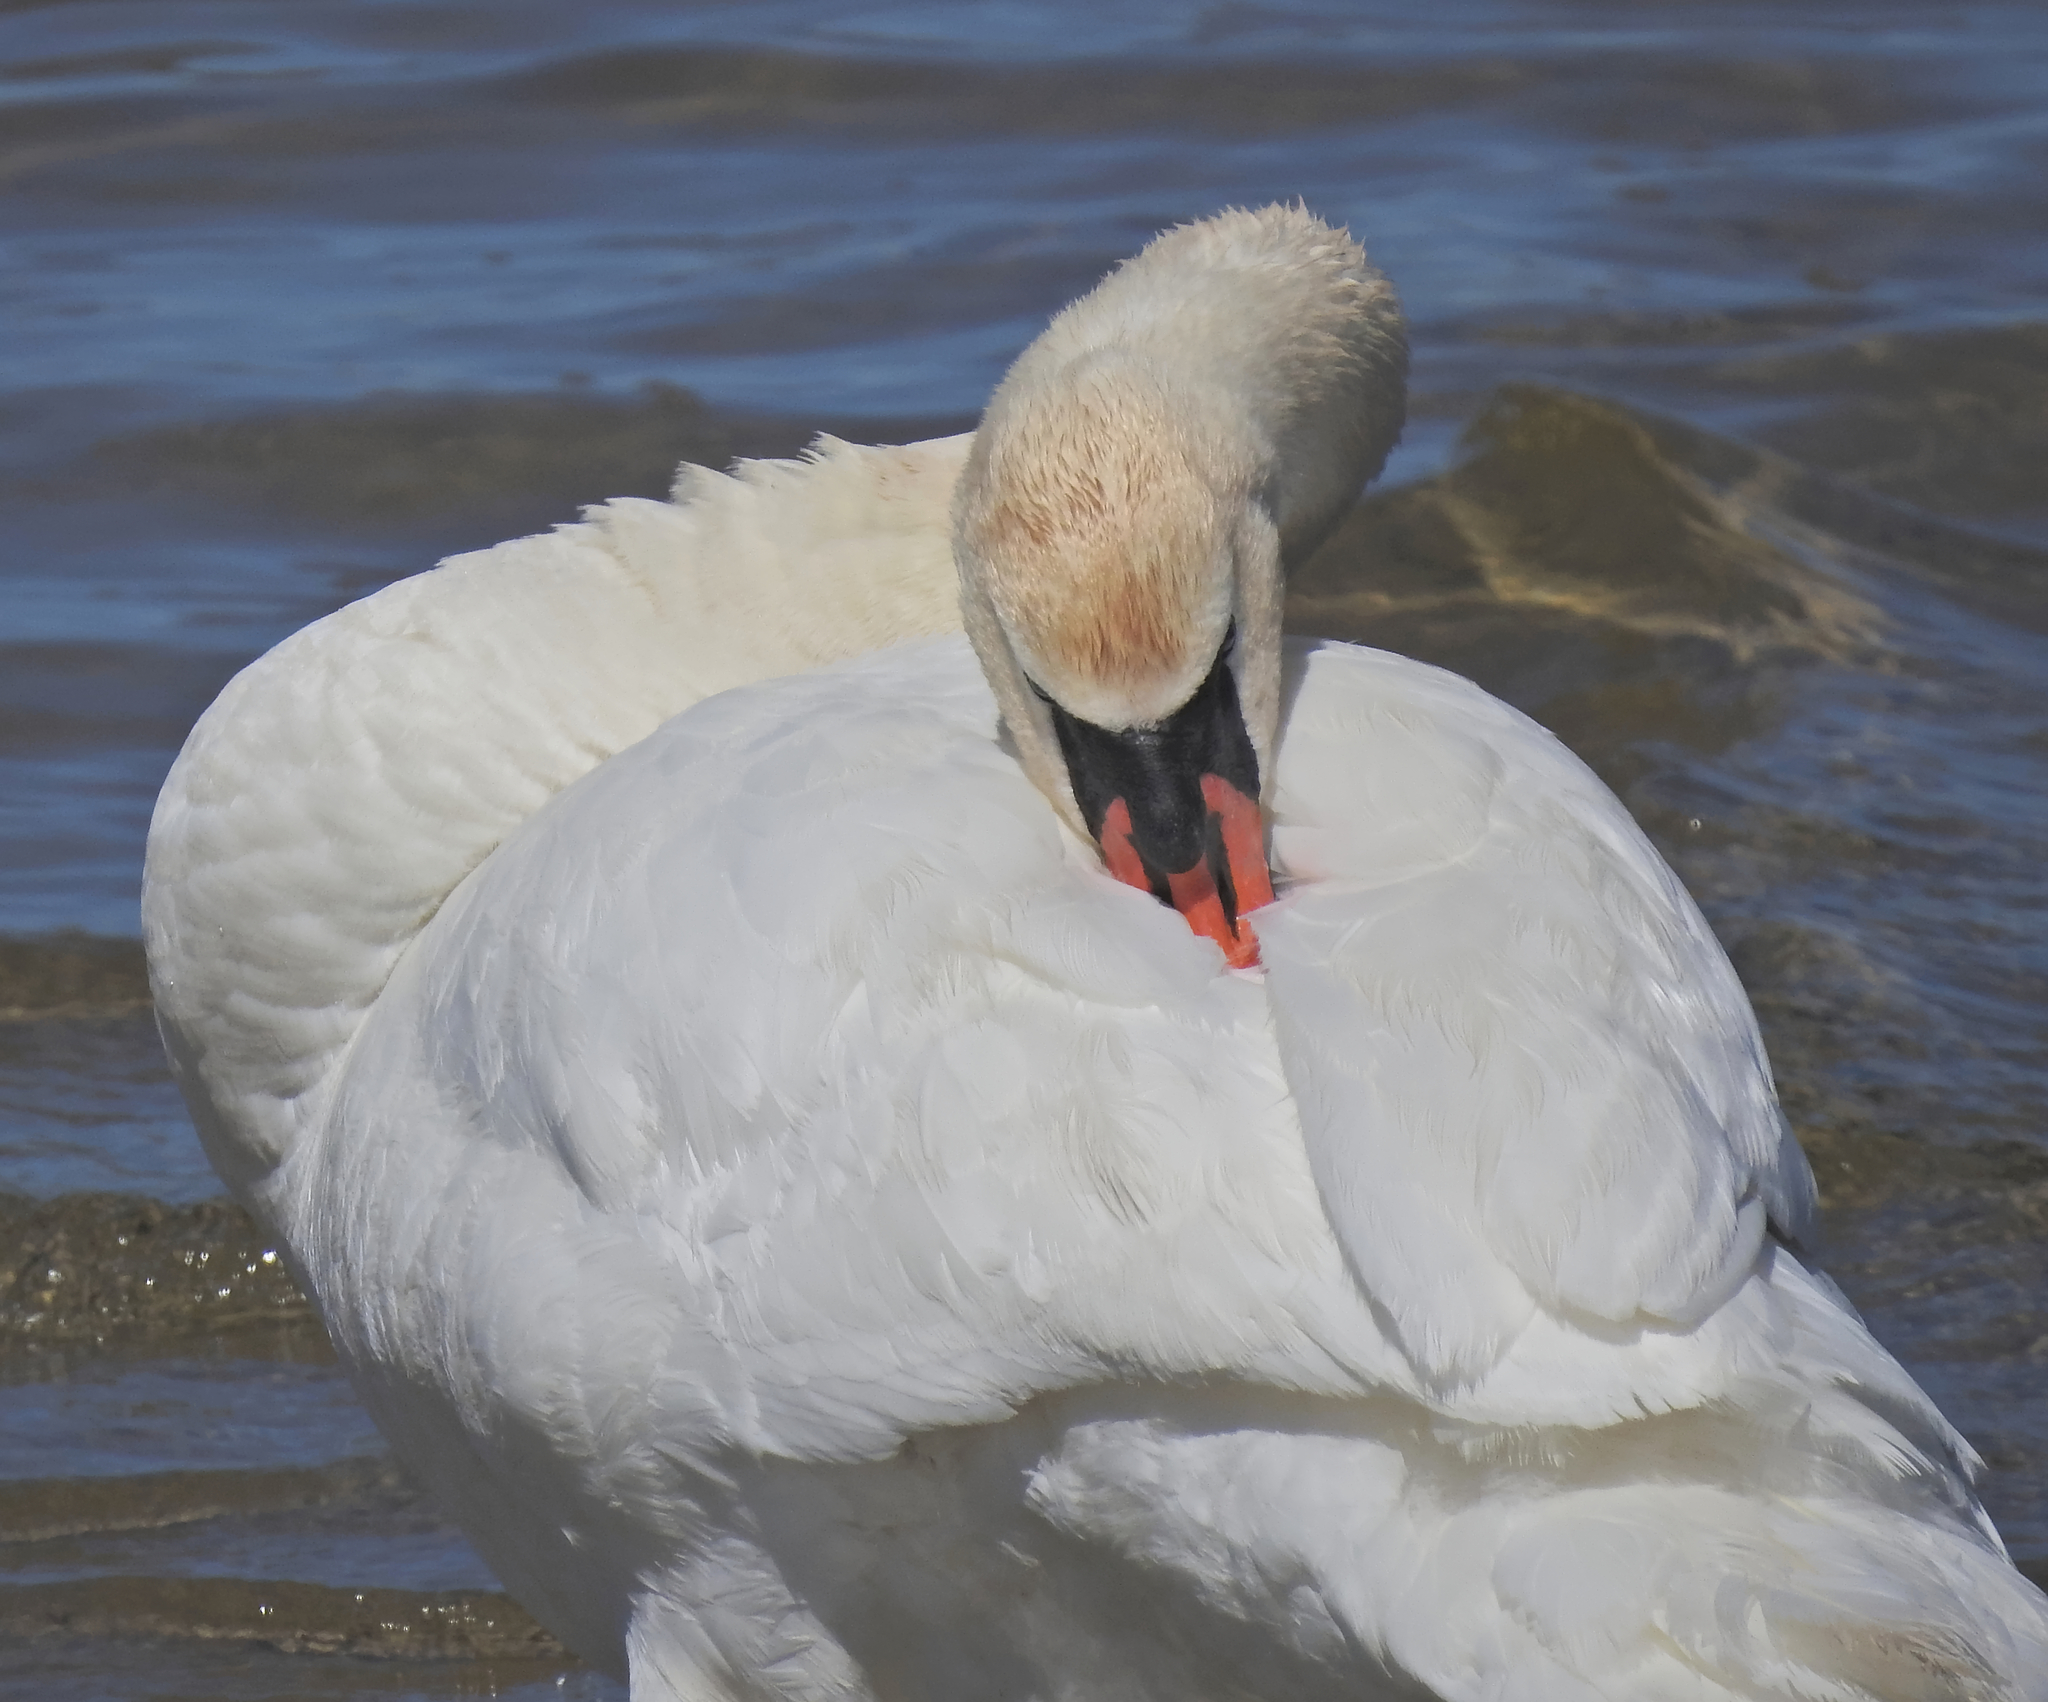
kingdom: Animalia
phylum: Chordata
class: Aves
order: Anseriformes
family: Anatidae
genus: Cygnus
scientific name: Cygnus olor
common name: Mute swan
